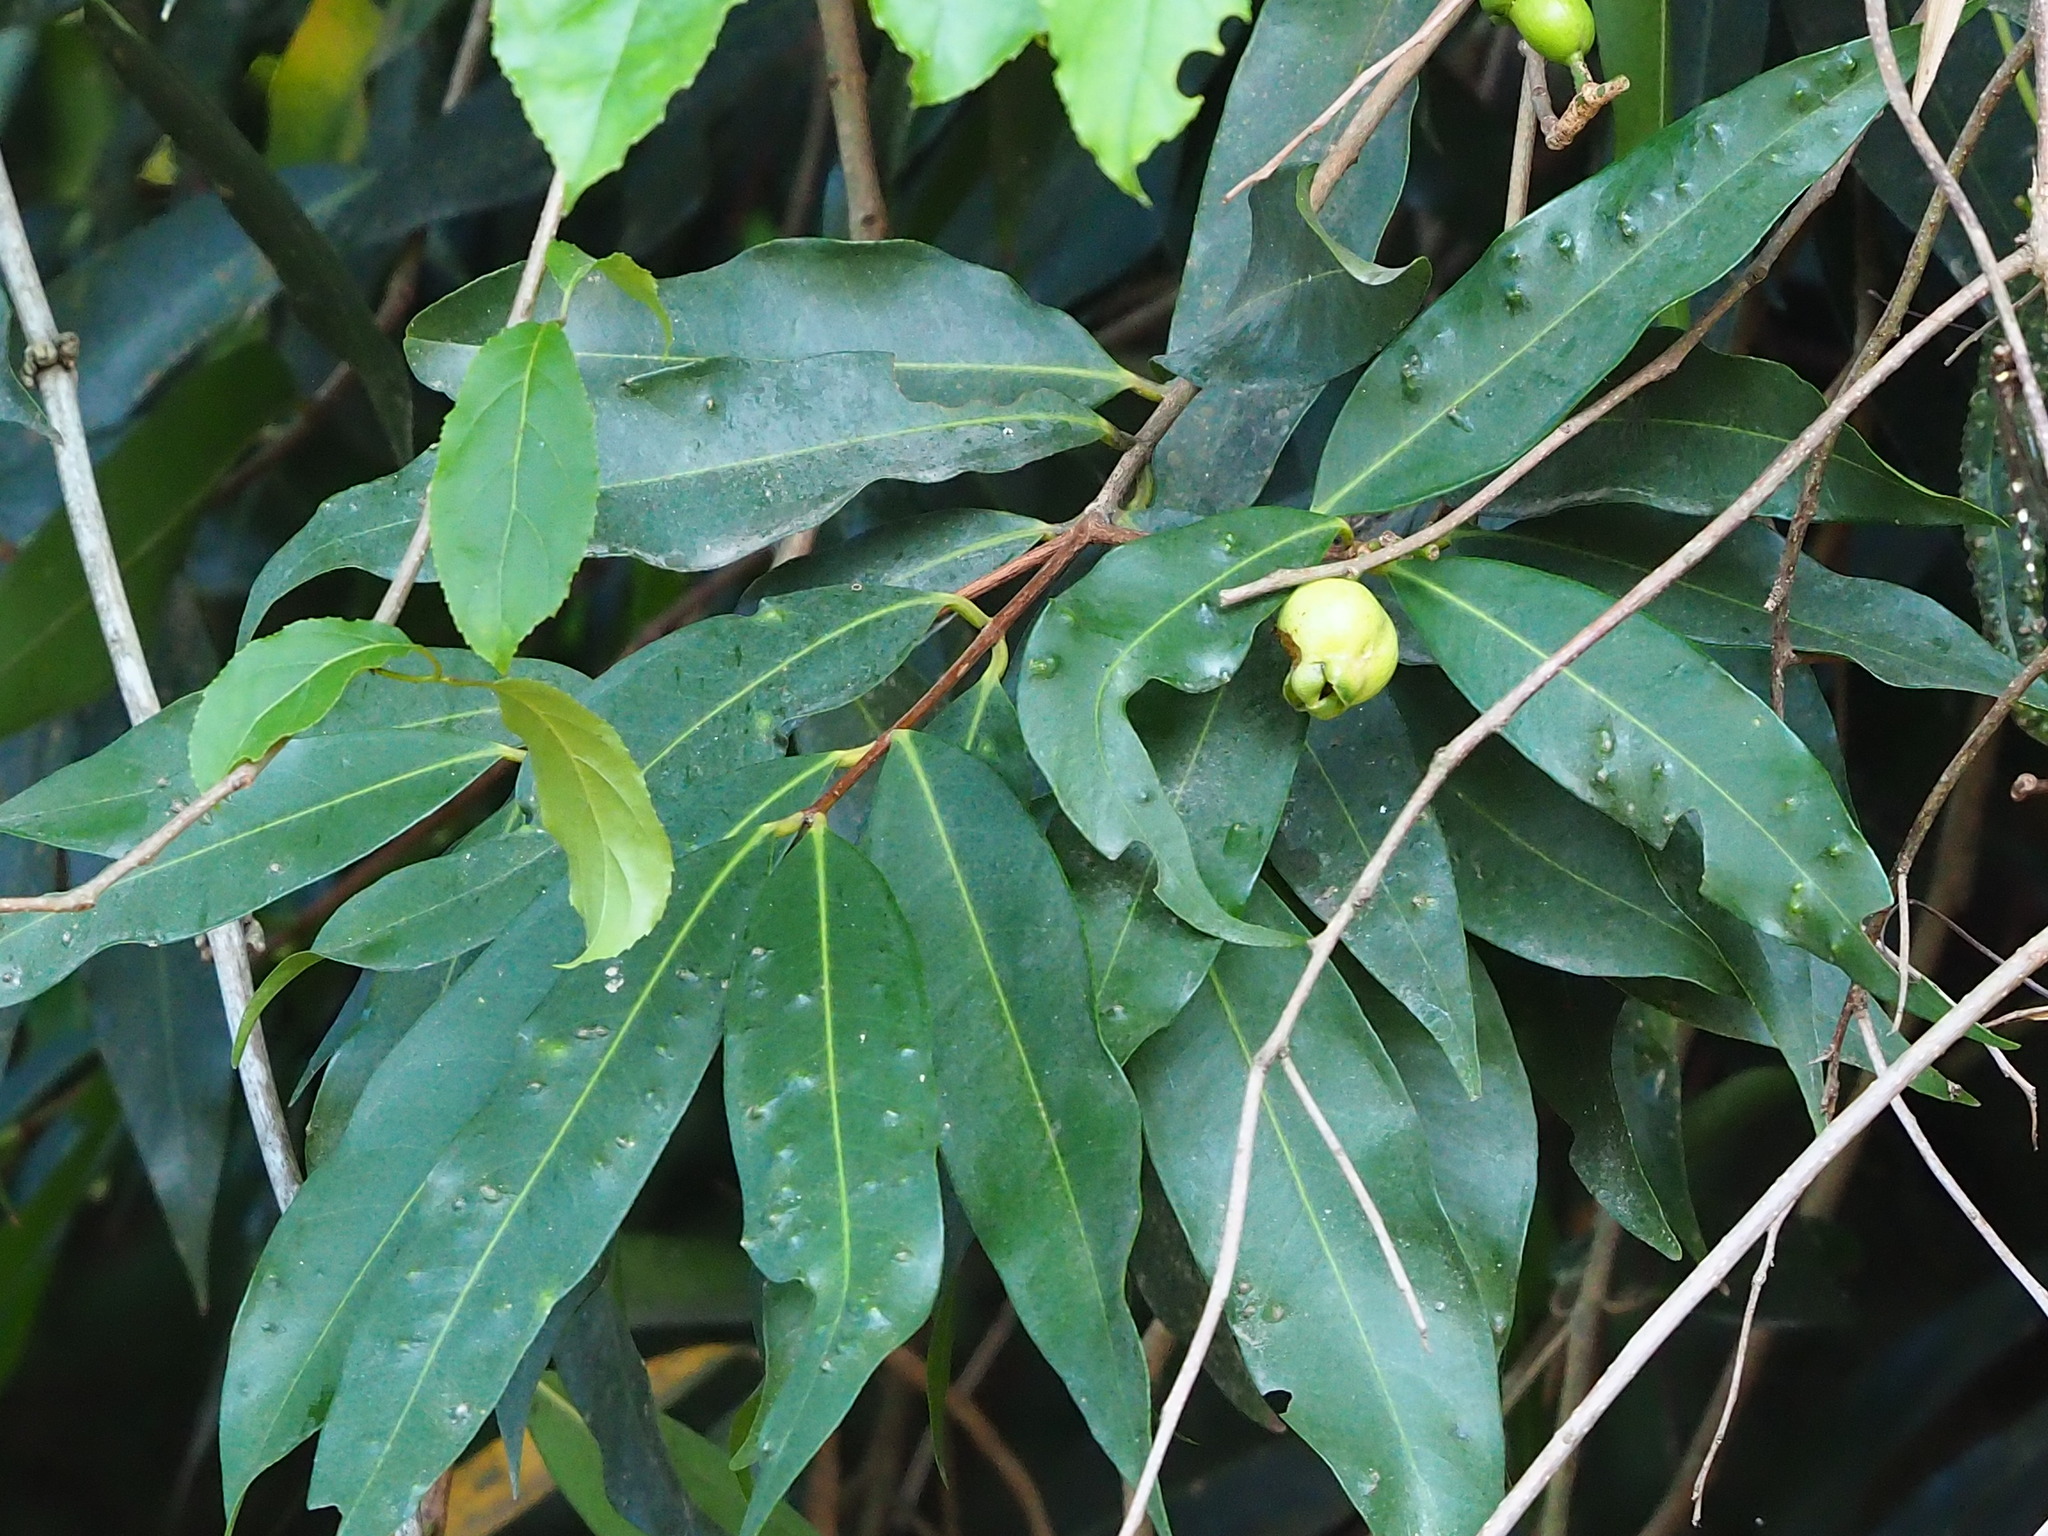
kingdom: Plantae
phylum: Tracheophyta
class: Magnoliopsida
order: Myrtales
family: Myrtaceae
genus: Syzygium
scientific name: Syzygium jambos
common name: Malabar plum
